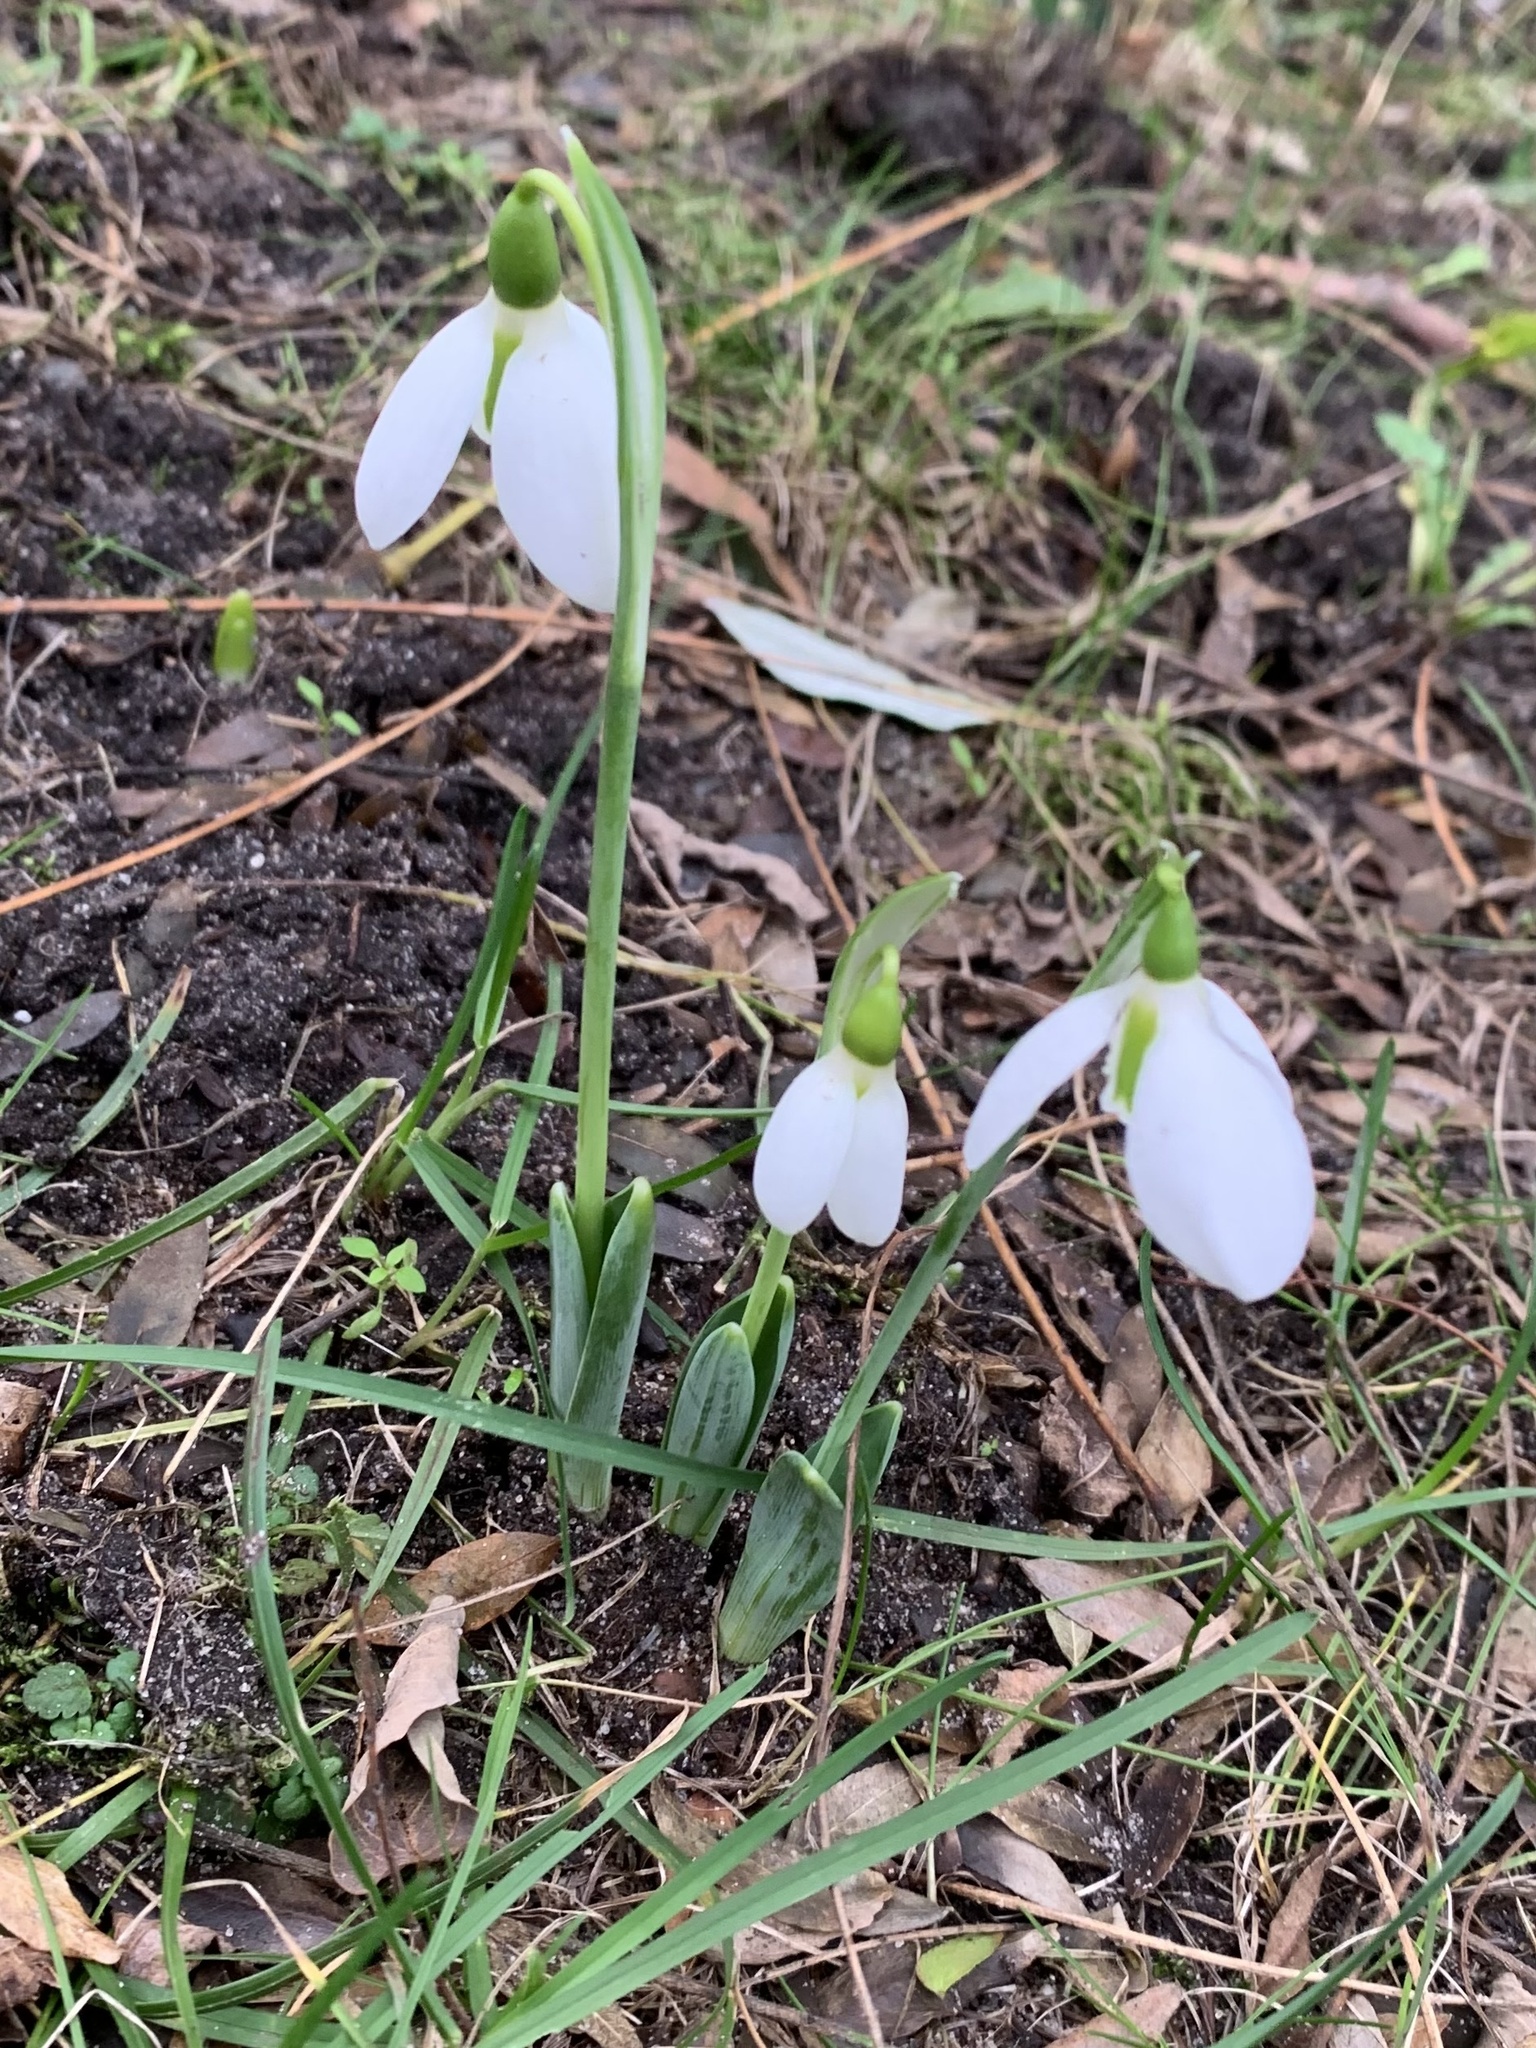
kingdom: Plantae
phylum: Tracheophyta
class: Liliopsida
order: Asparagales
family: Amaryllidaceae
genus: Galanthus
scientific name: Galanthus elwesii
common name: Greater snowdrop
